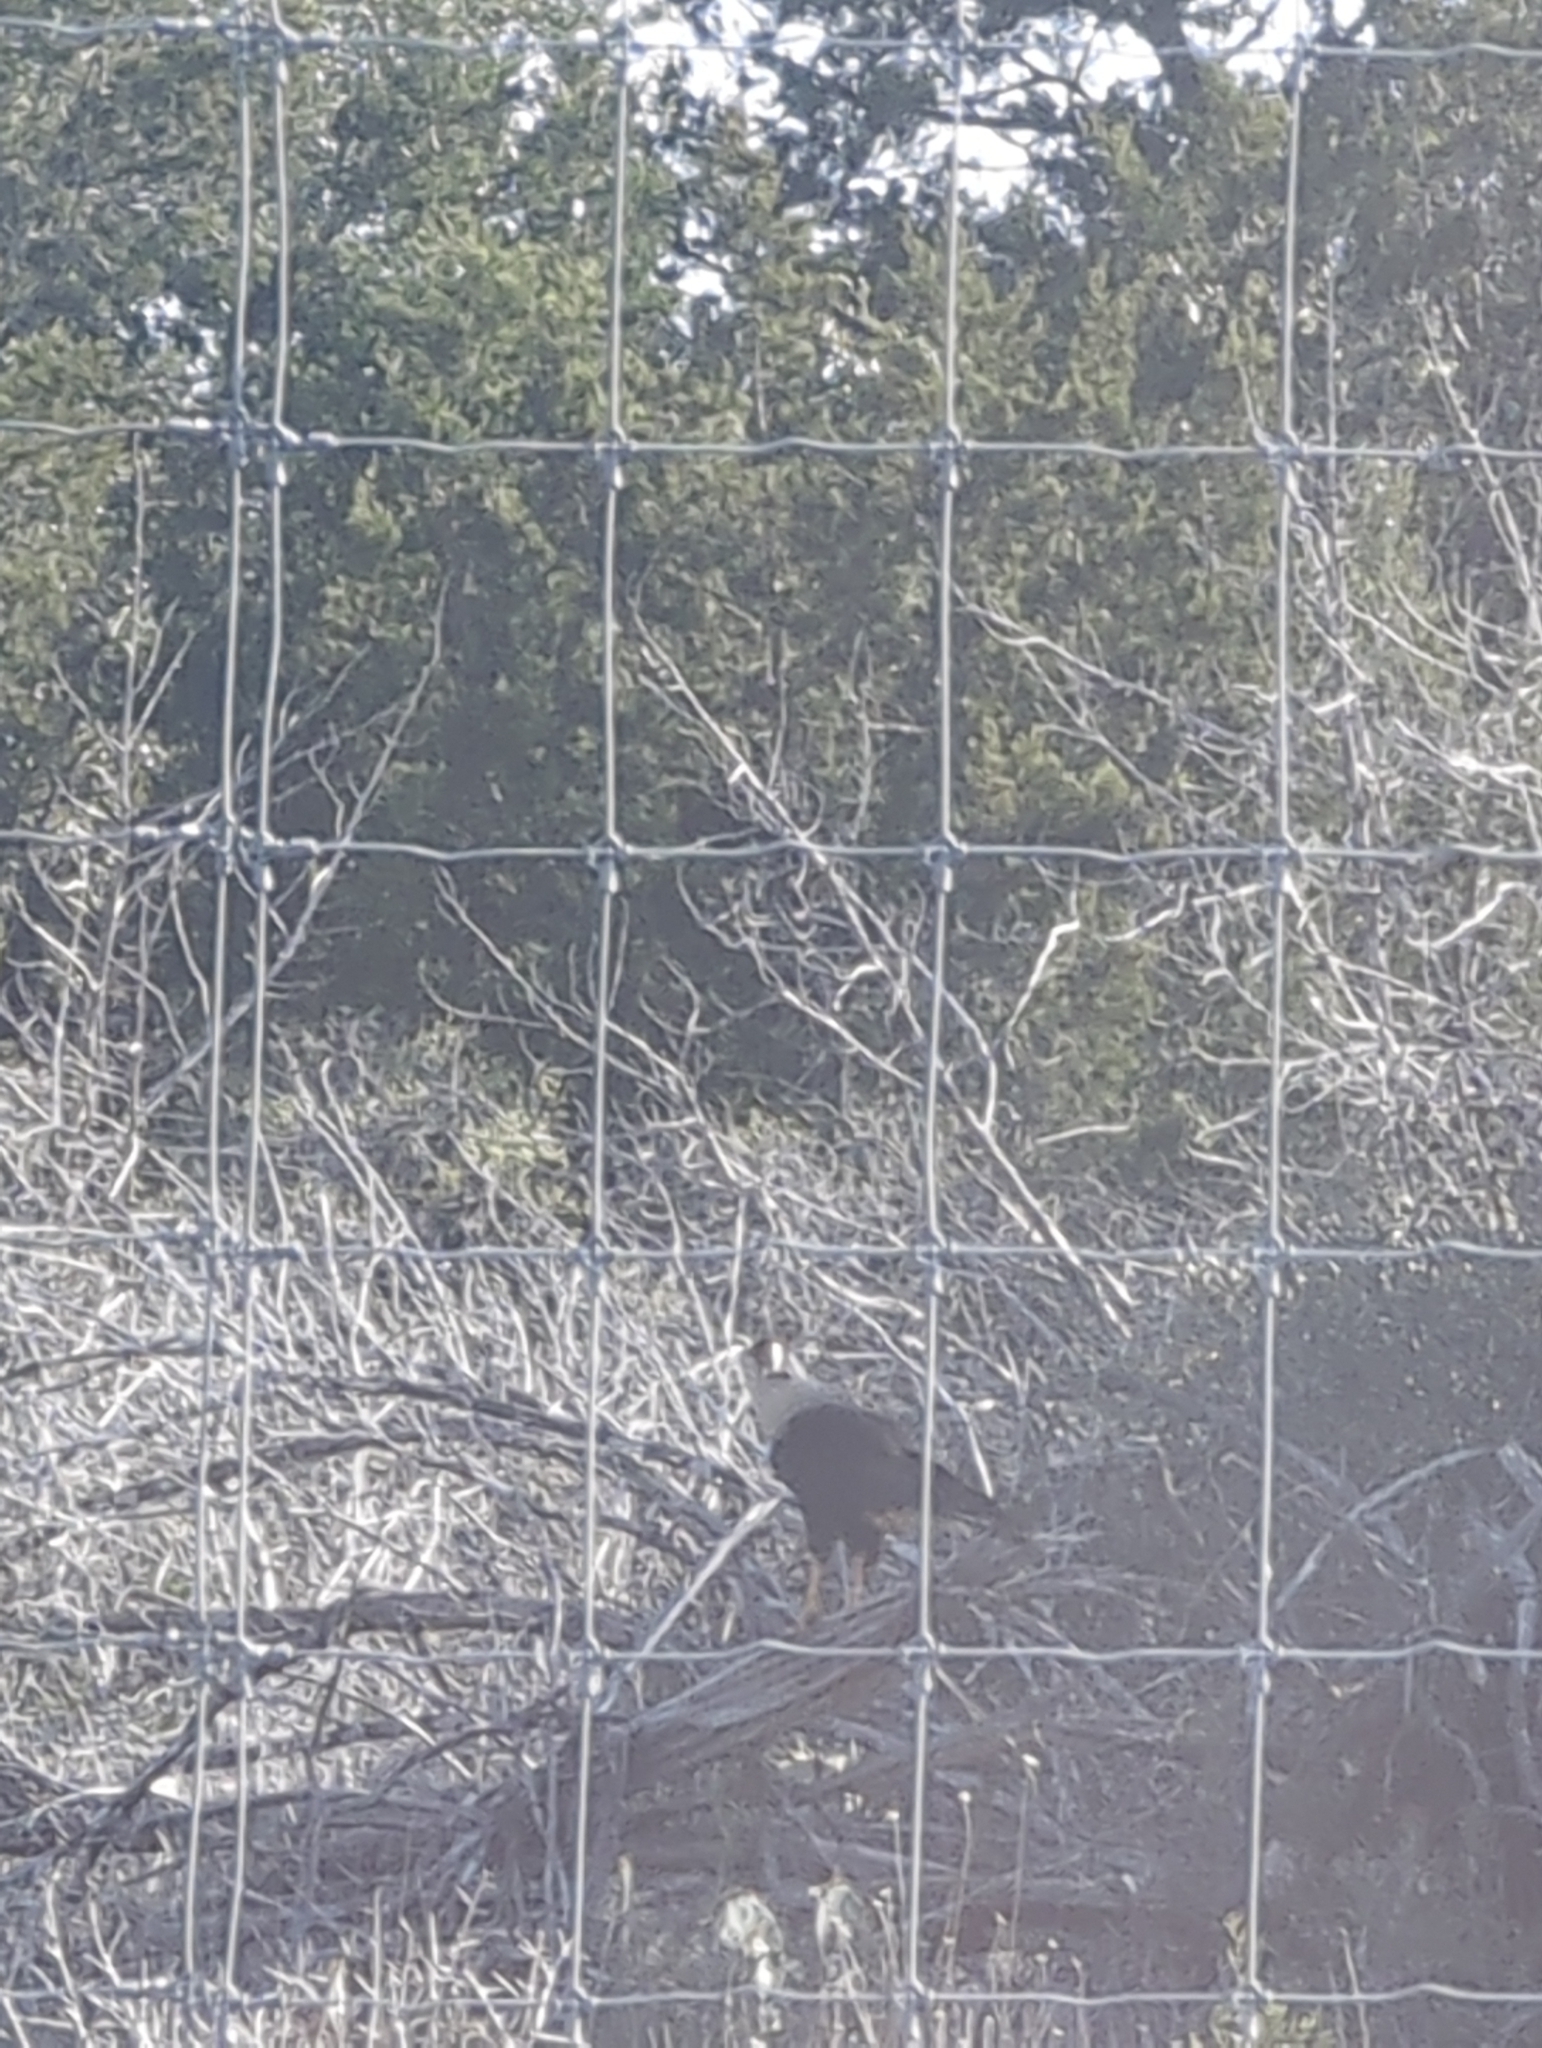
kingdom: Animalia
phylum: Chordata
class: Aves
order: Falconiformes
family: Falconidae
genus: Caracara
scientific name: Caracara plancus
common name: Southern caracara
